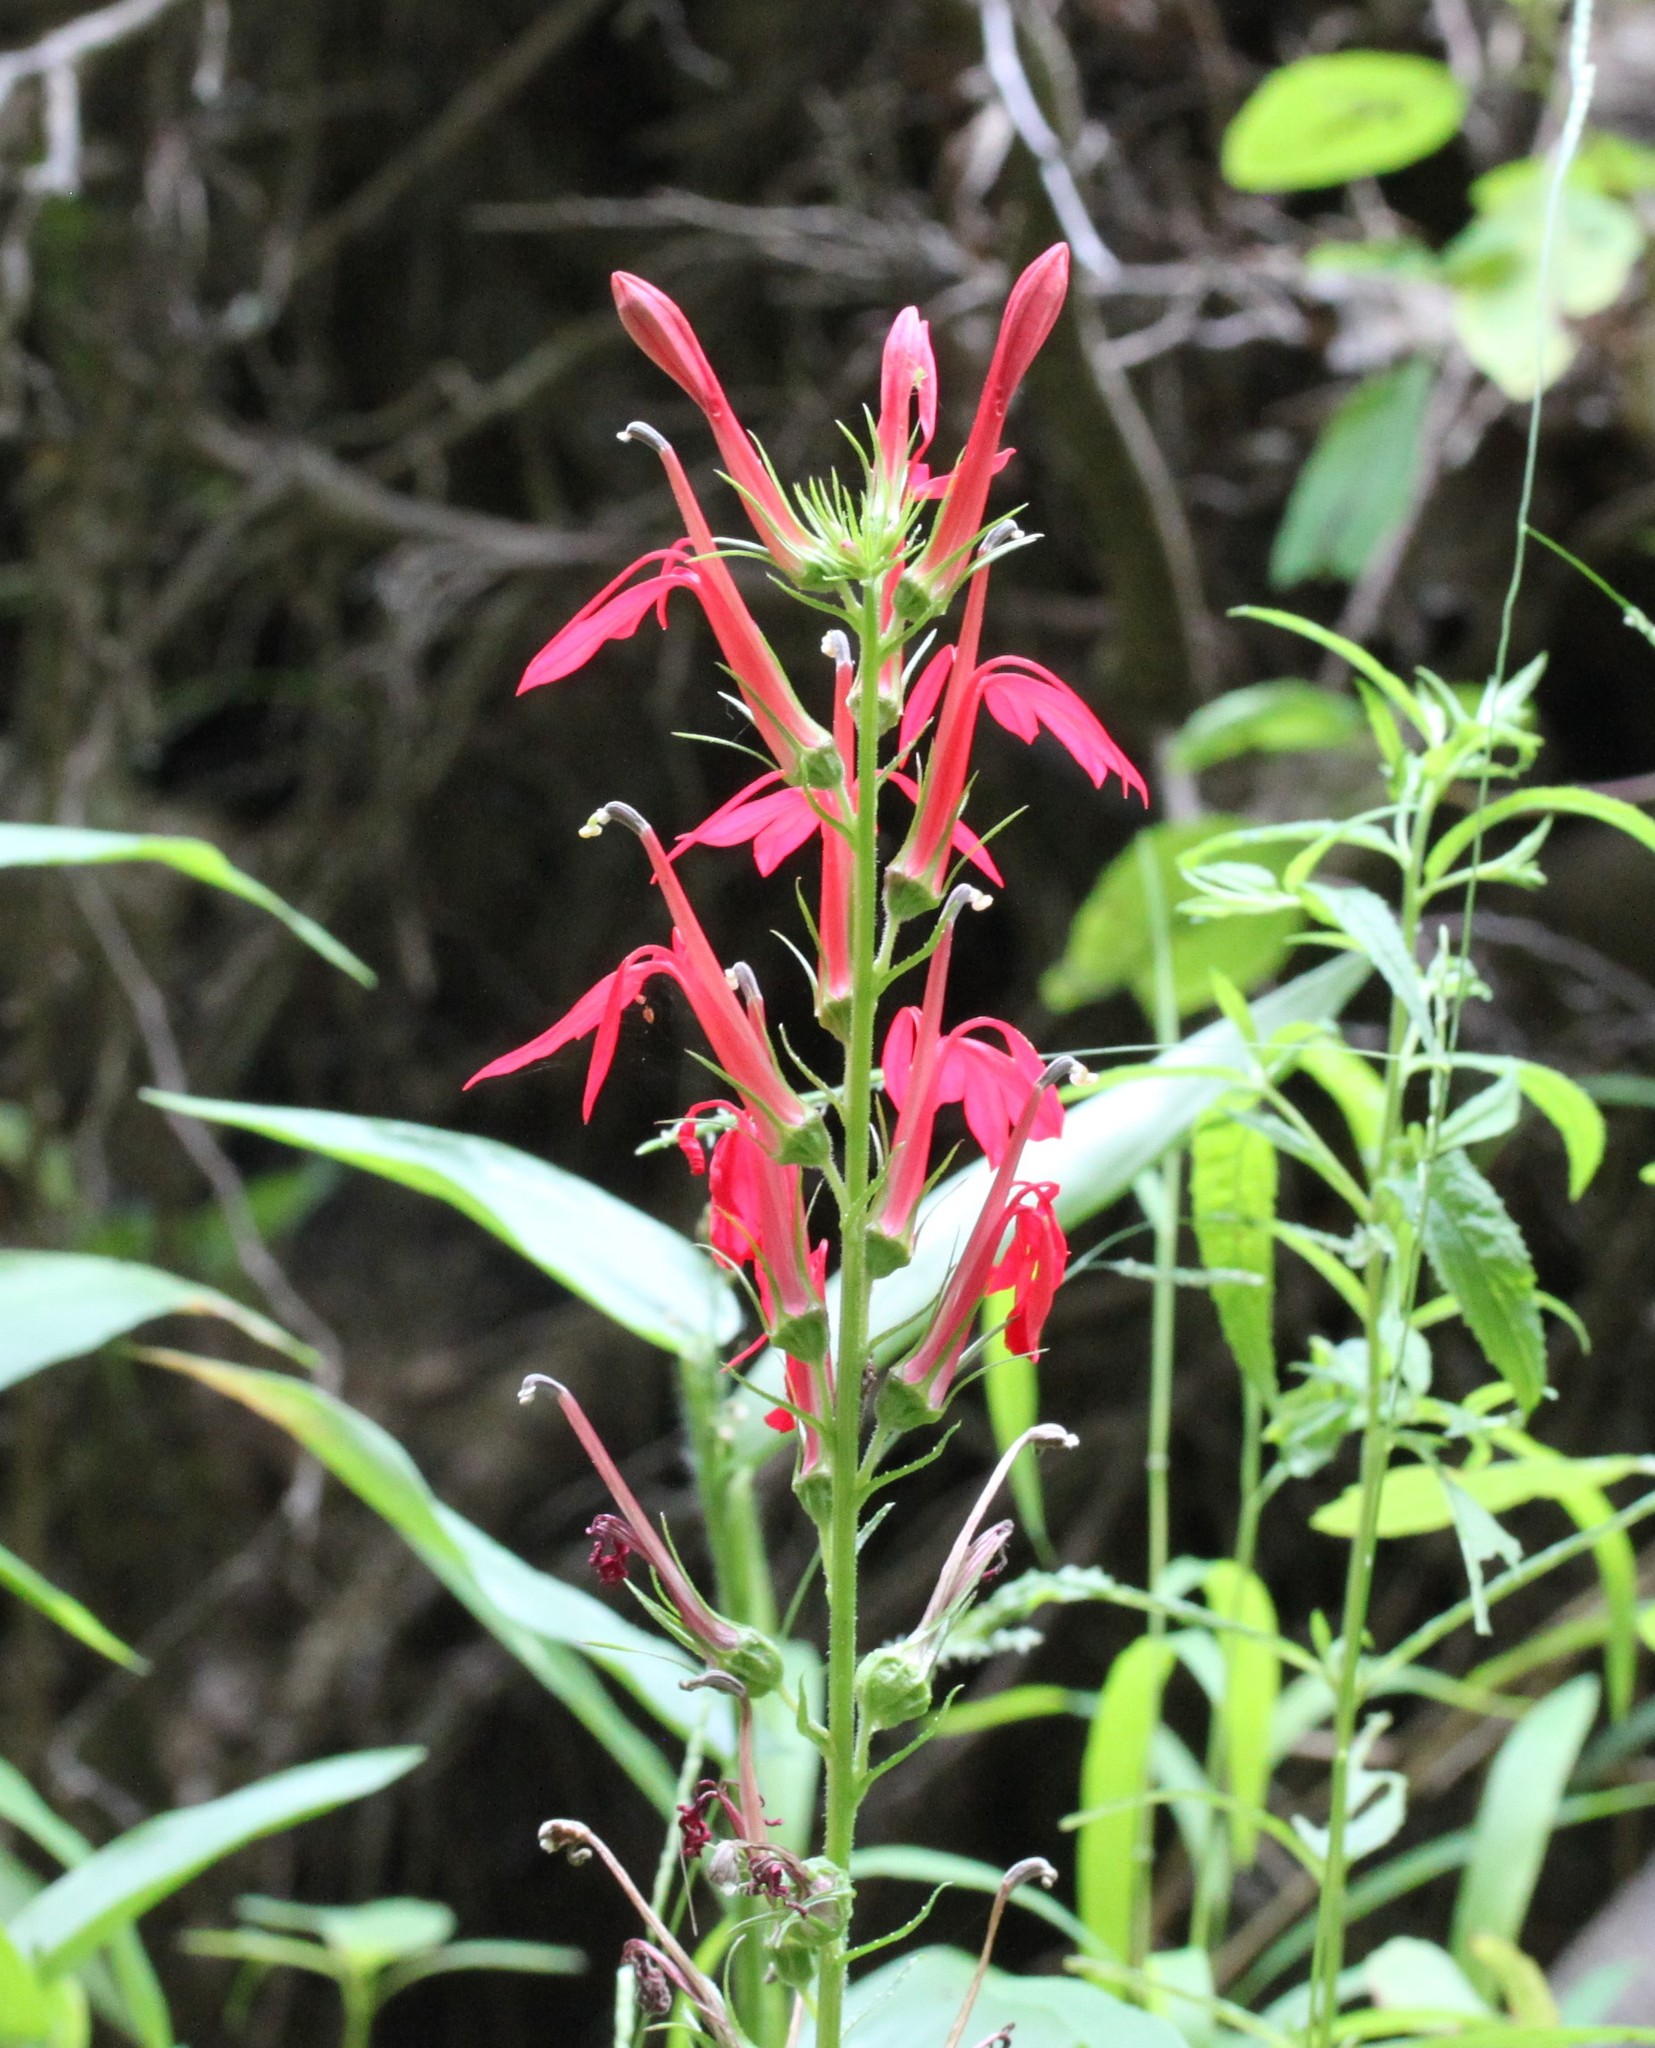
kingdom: Plantae
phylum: Tracheophyta
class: Magnoliopsida
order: Asterales
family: Campanulaceae
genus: Lobelia
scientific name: Lobelia cardinalis
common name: Cardinal flower
